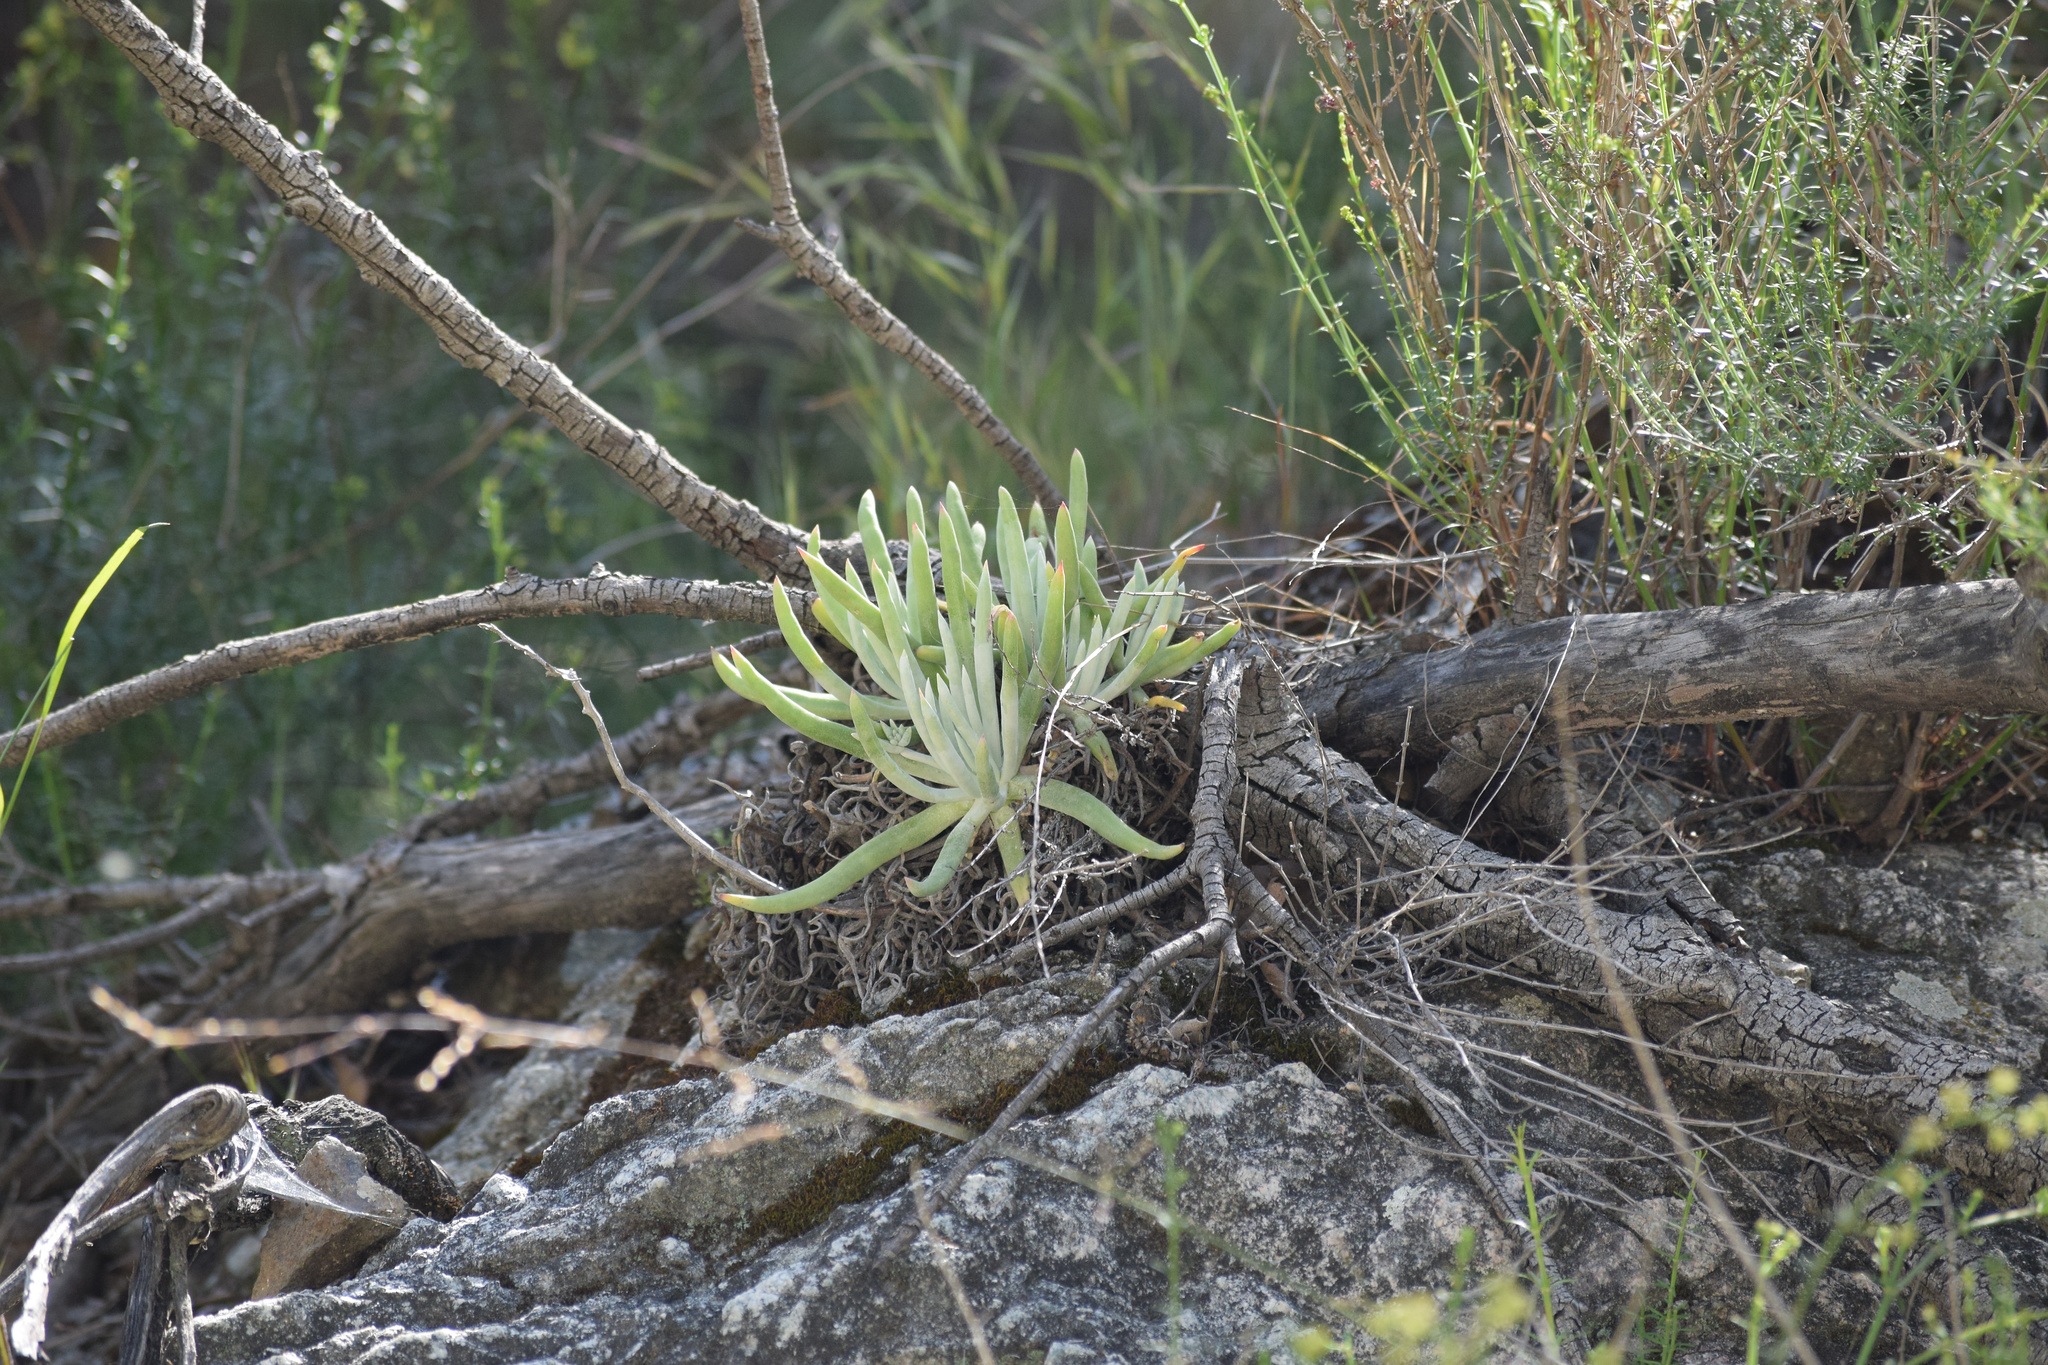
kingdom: Plantae
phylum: Tracheophyta
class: Magnoliopsida
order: Saxifragales
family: Crassulaceae
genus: Dudleya
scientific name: Dudleya densiflora
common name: San gabriel mountains dudleya
